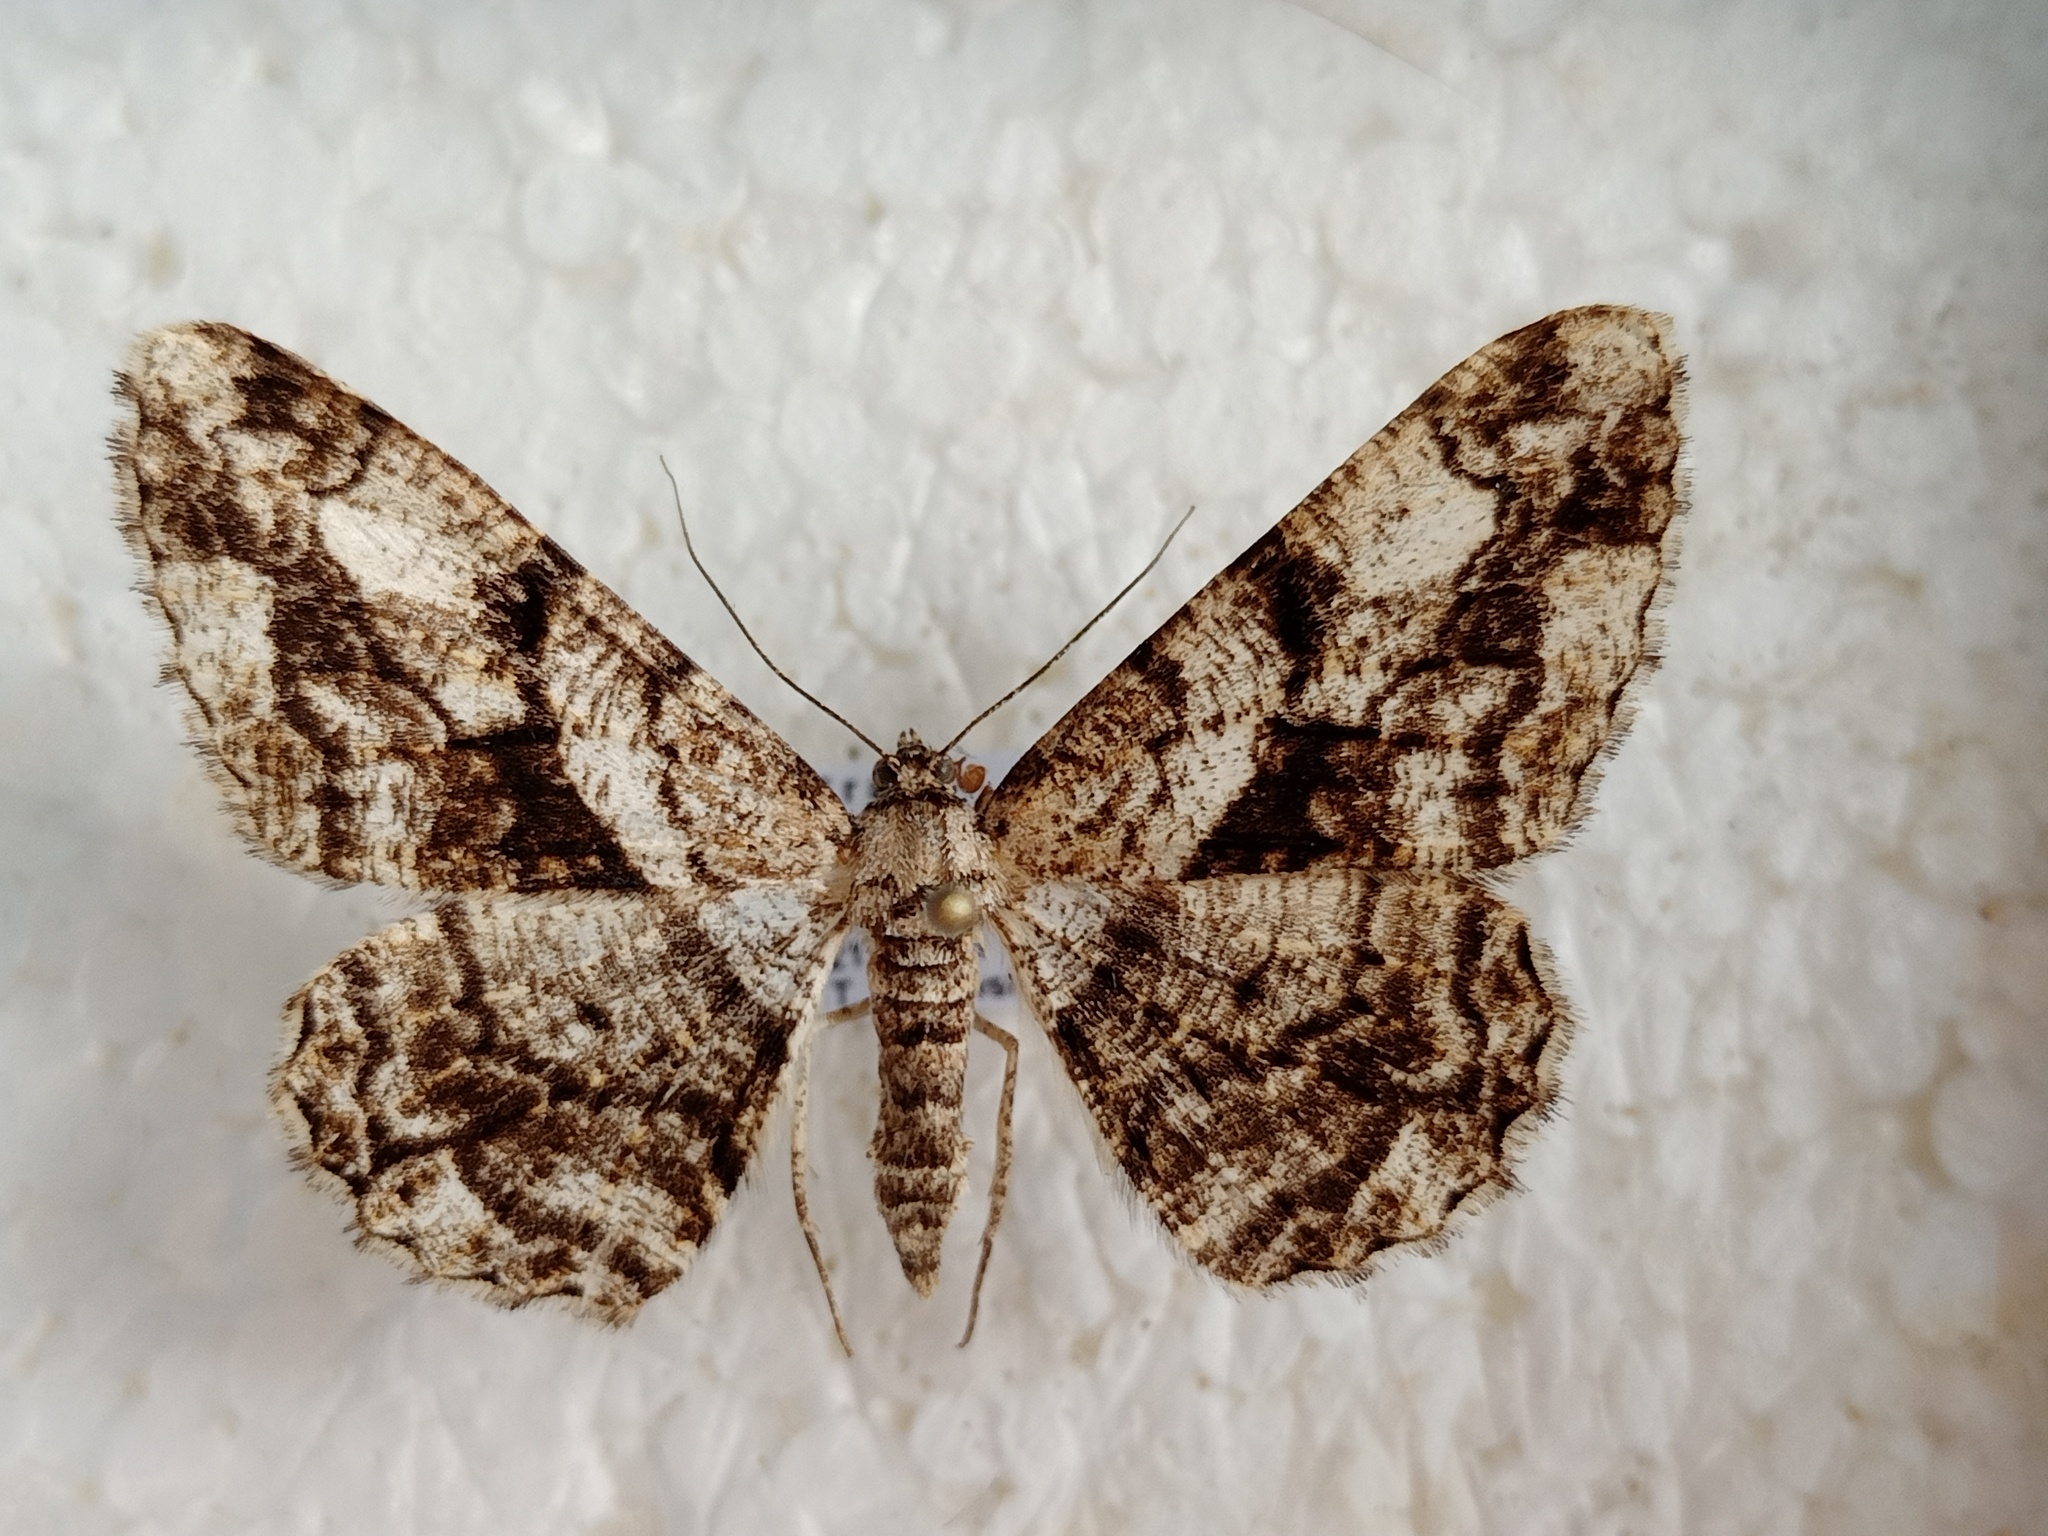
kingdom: Animalia
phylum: Arthropoda
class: Insecta
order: Lepidoptera
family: Geometridae
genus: Peribatodes
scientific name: Peribatodes umbraria
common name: Olive-tree beauty
